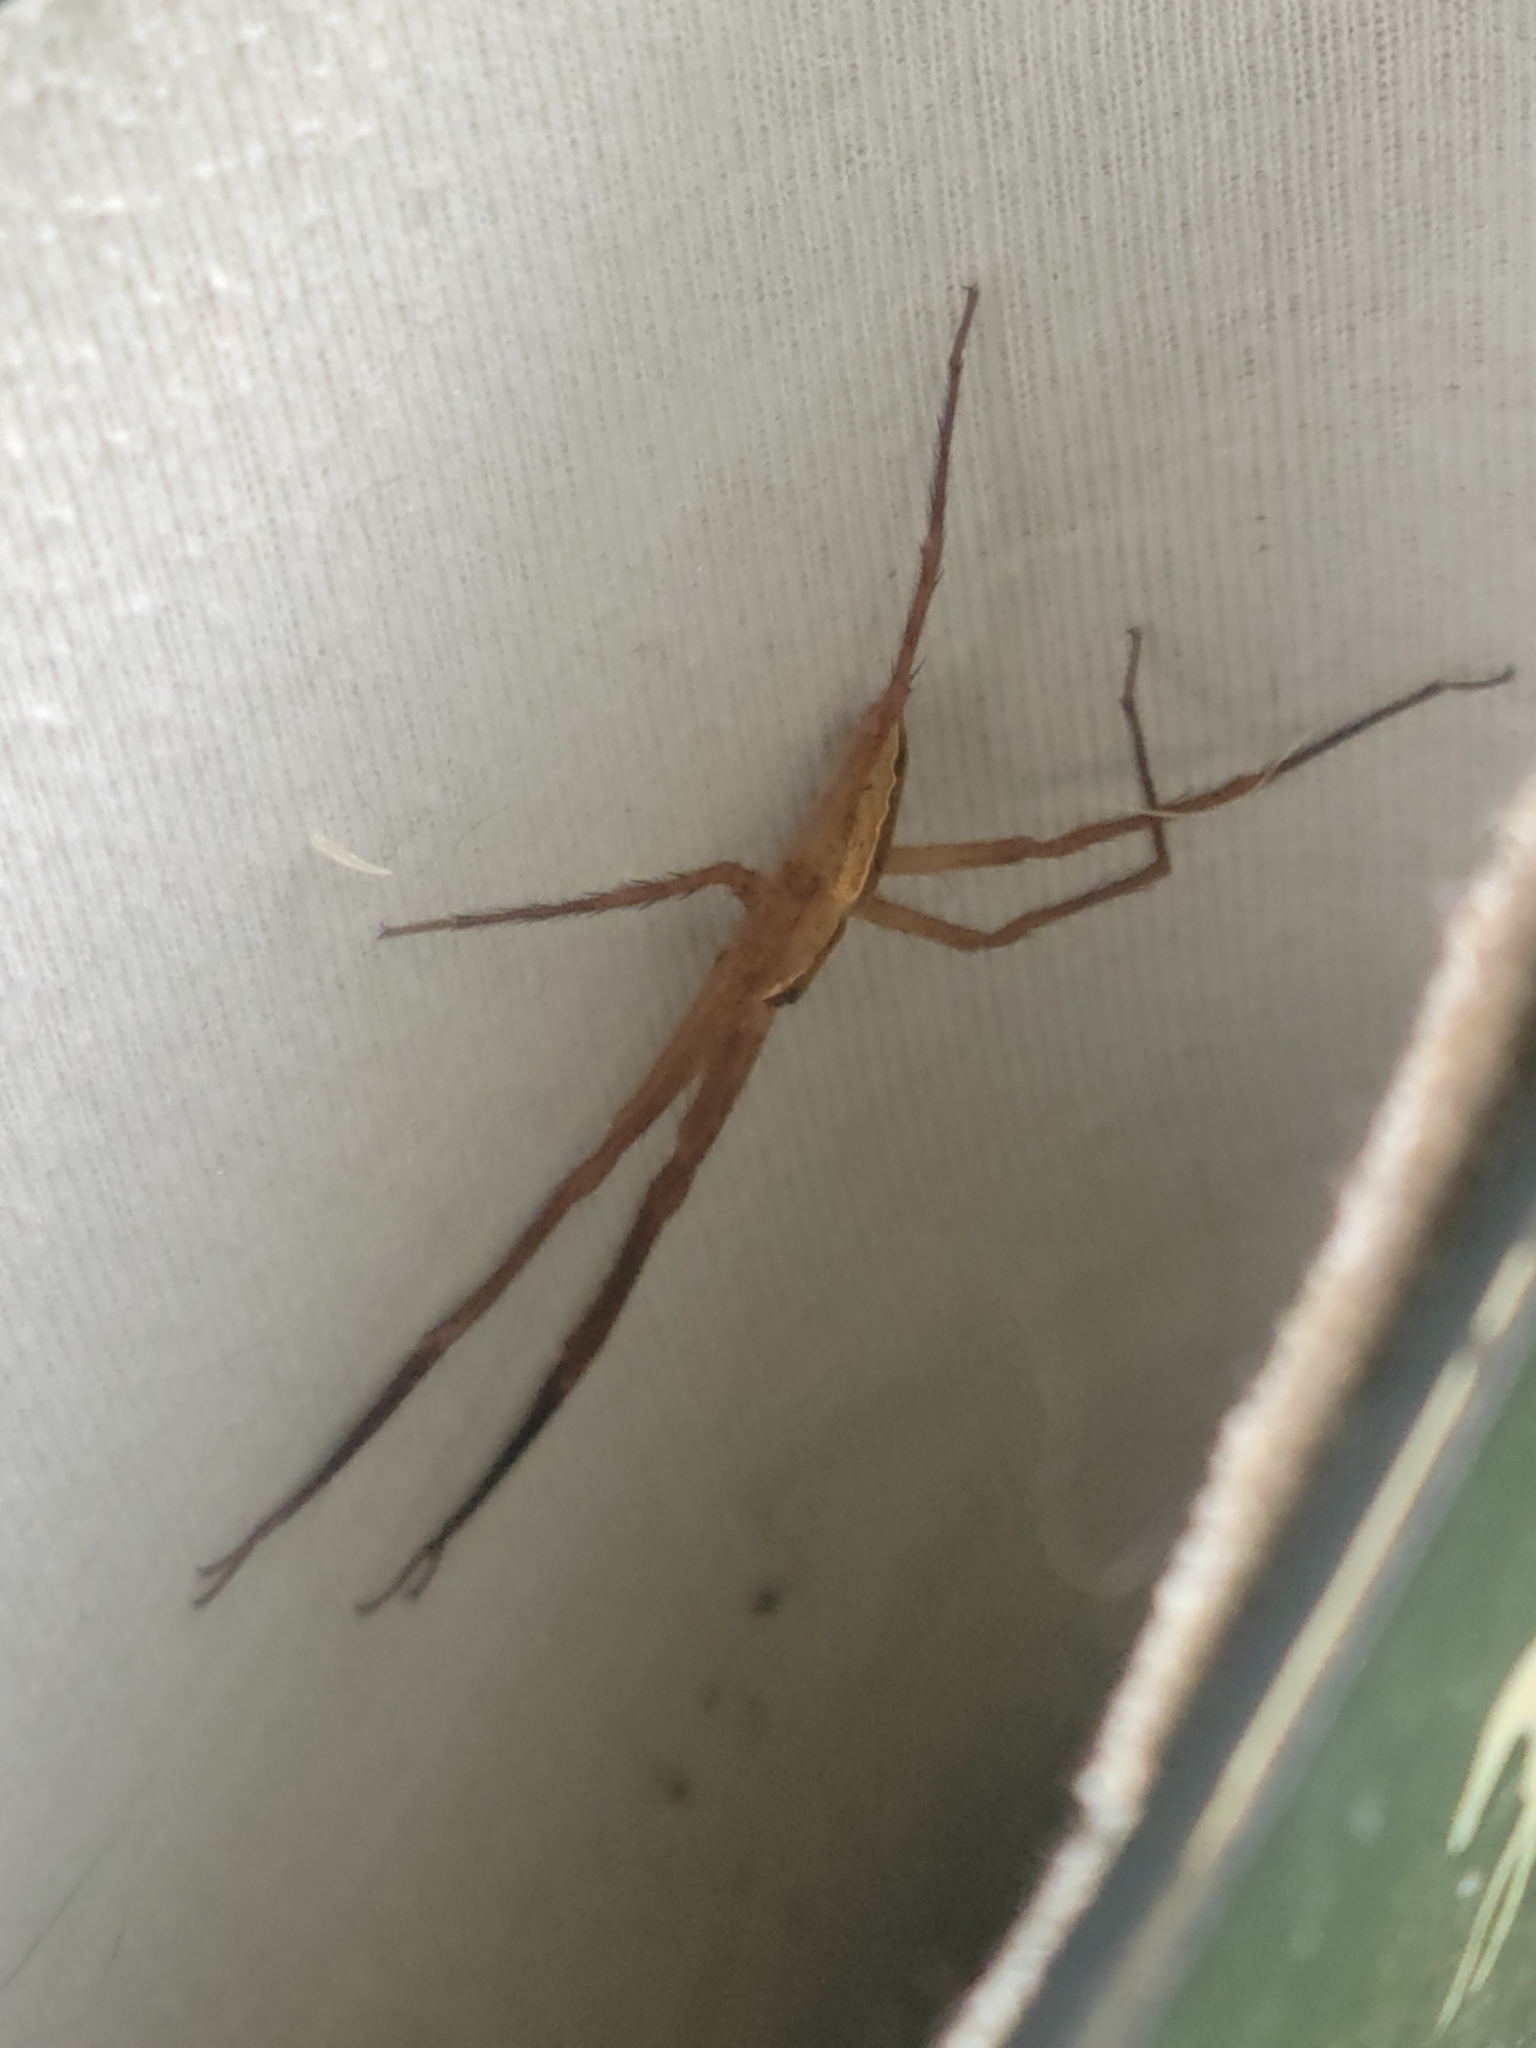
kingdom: Animalia
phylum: Arthropoda
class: Arachnida
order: Araneae
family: Pisauridae
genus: Pisaurina
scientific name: Pisaurina mira
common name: American nursery web spider
